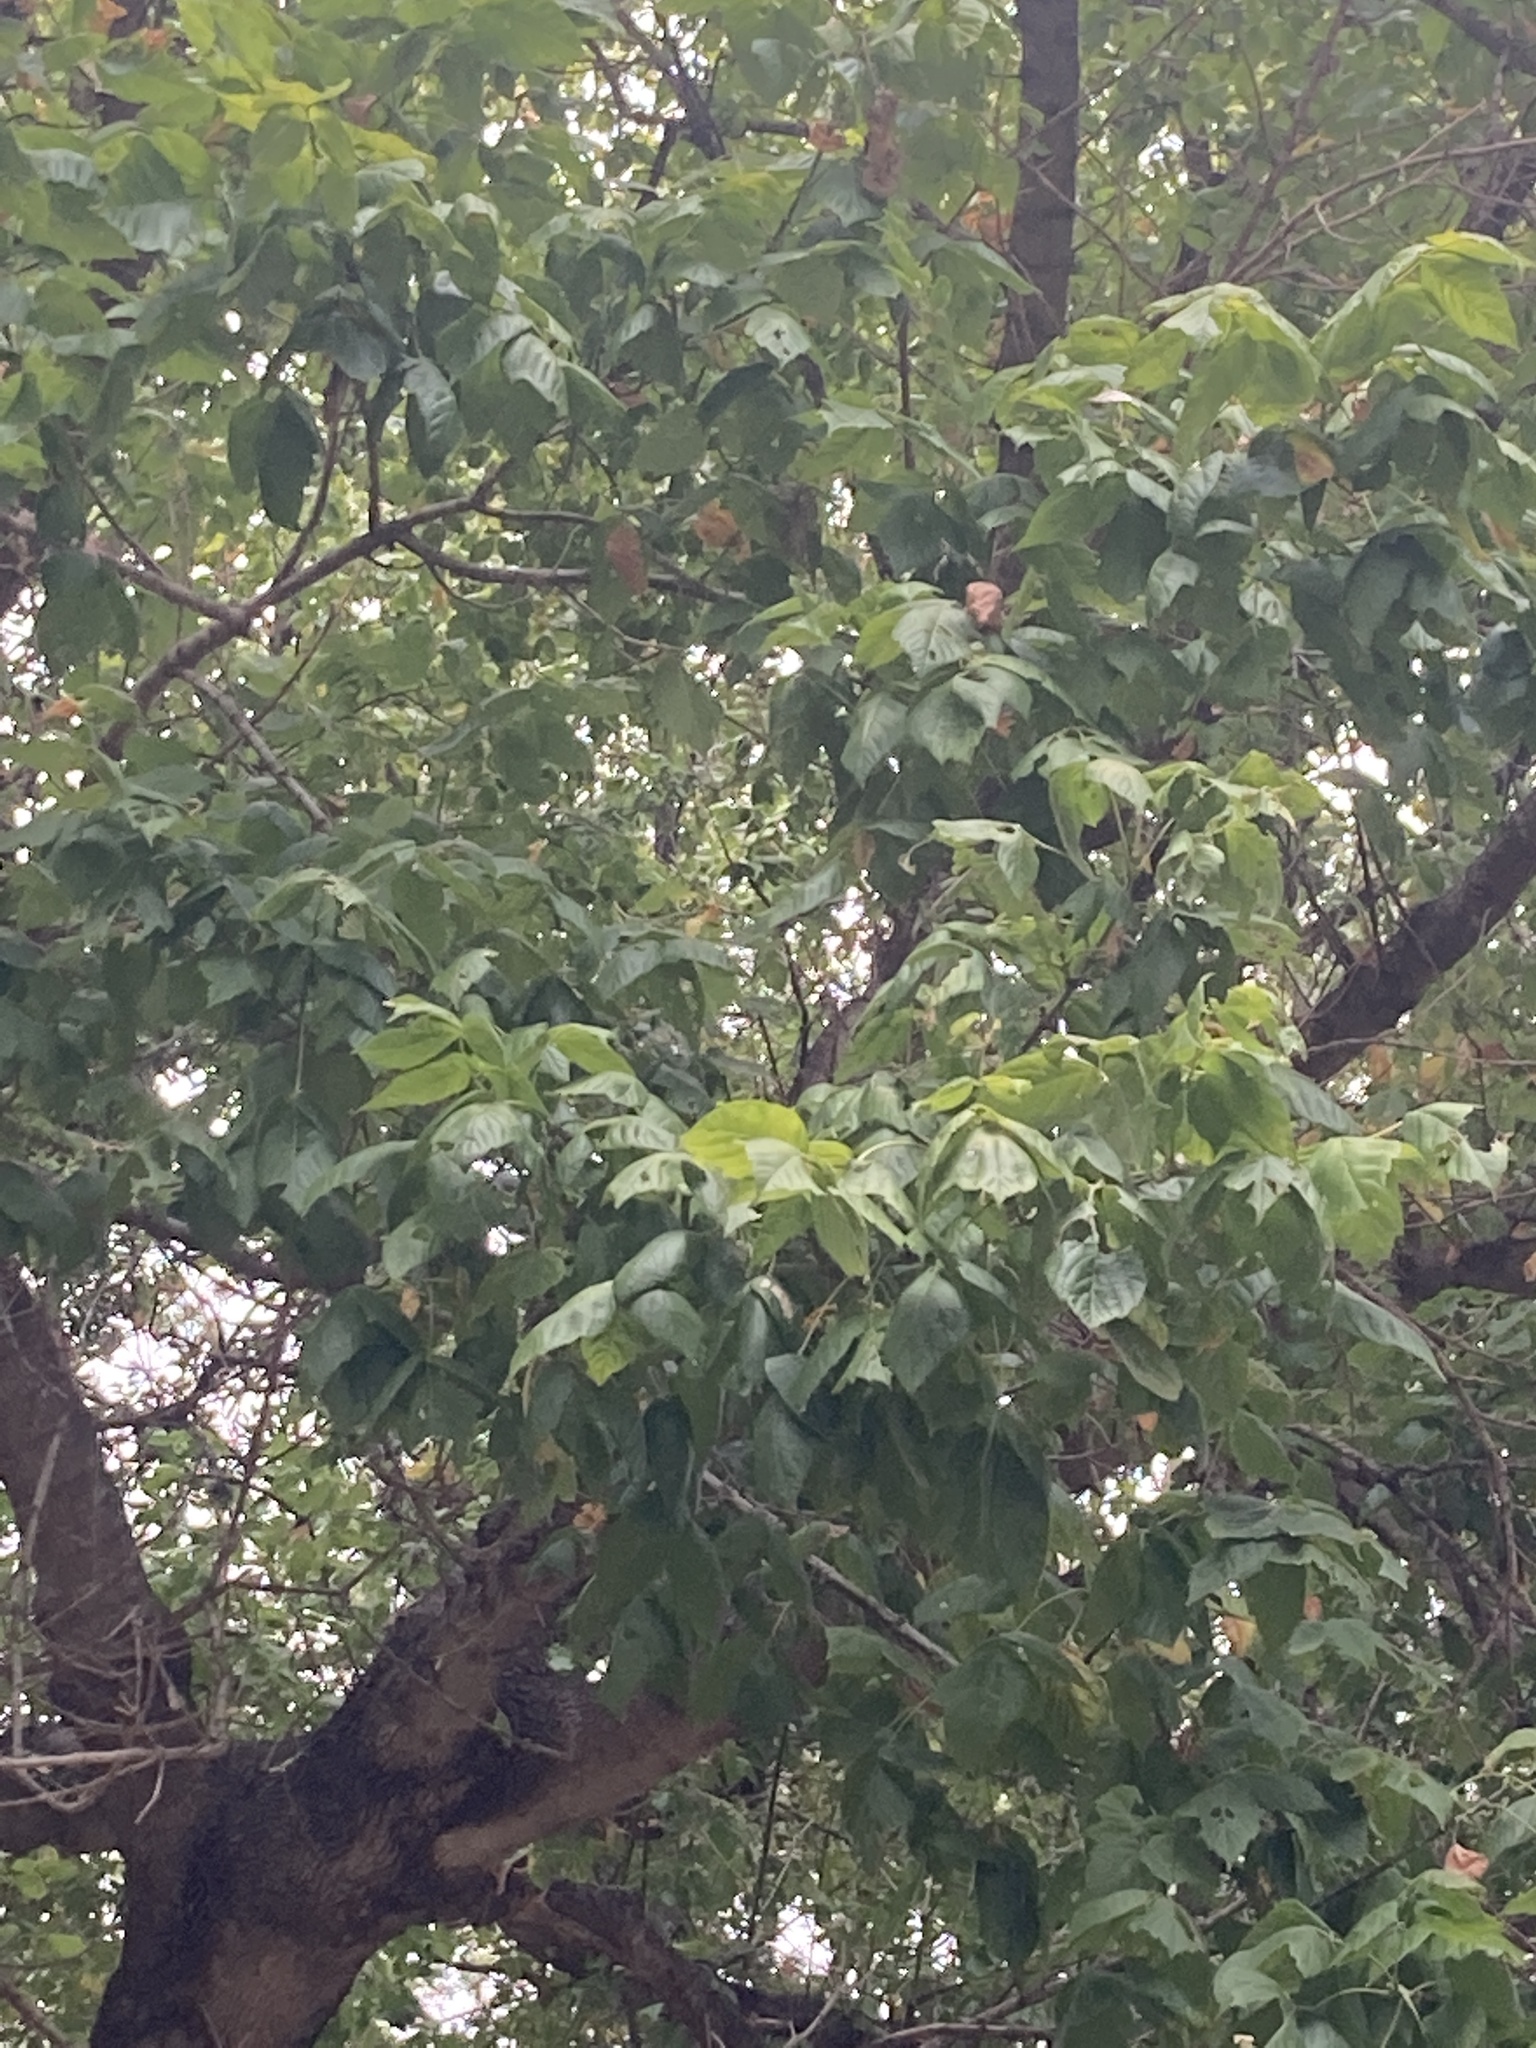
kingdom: Plantae
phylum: Tracheophyta
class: Magnoliopsida
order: Sapindales
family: Sapindaceae
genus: Acer
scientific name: Acer negundo
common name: Ashleaf maple
